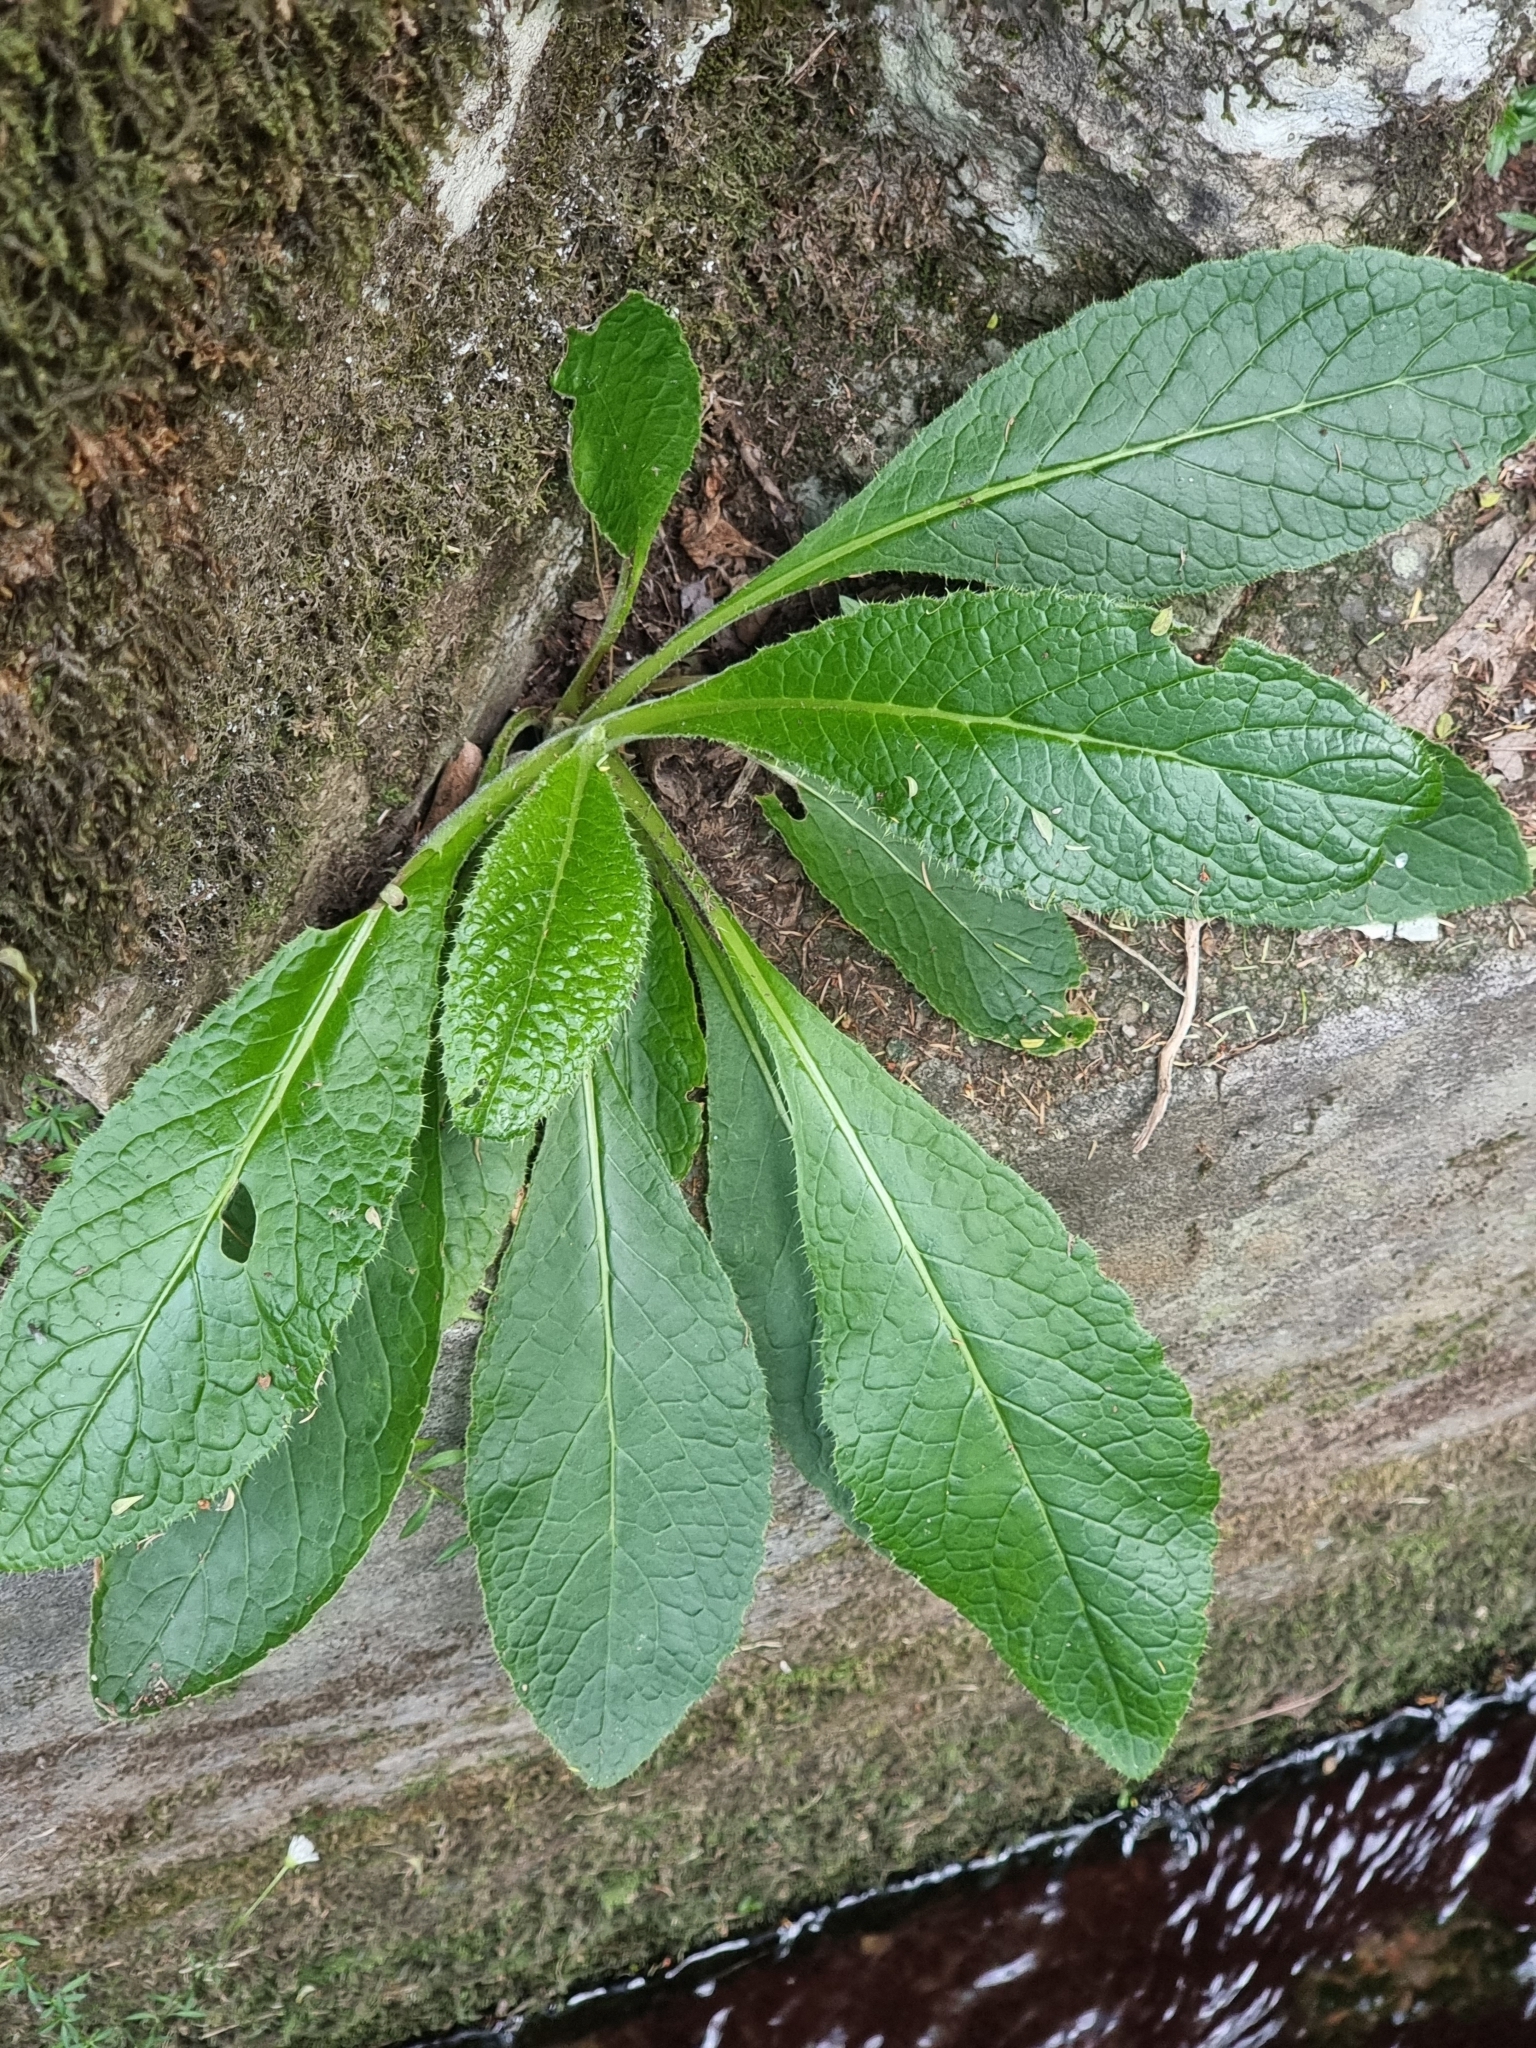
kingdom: Plantae
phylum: Tracheophyta
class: Magnoliopsida
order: Asterales
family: Asteraceae
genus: Cirsium
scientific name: Cirsium latifolium
